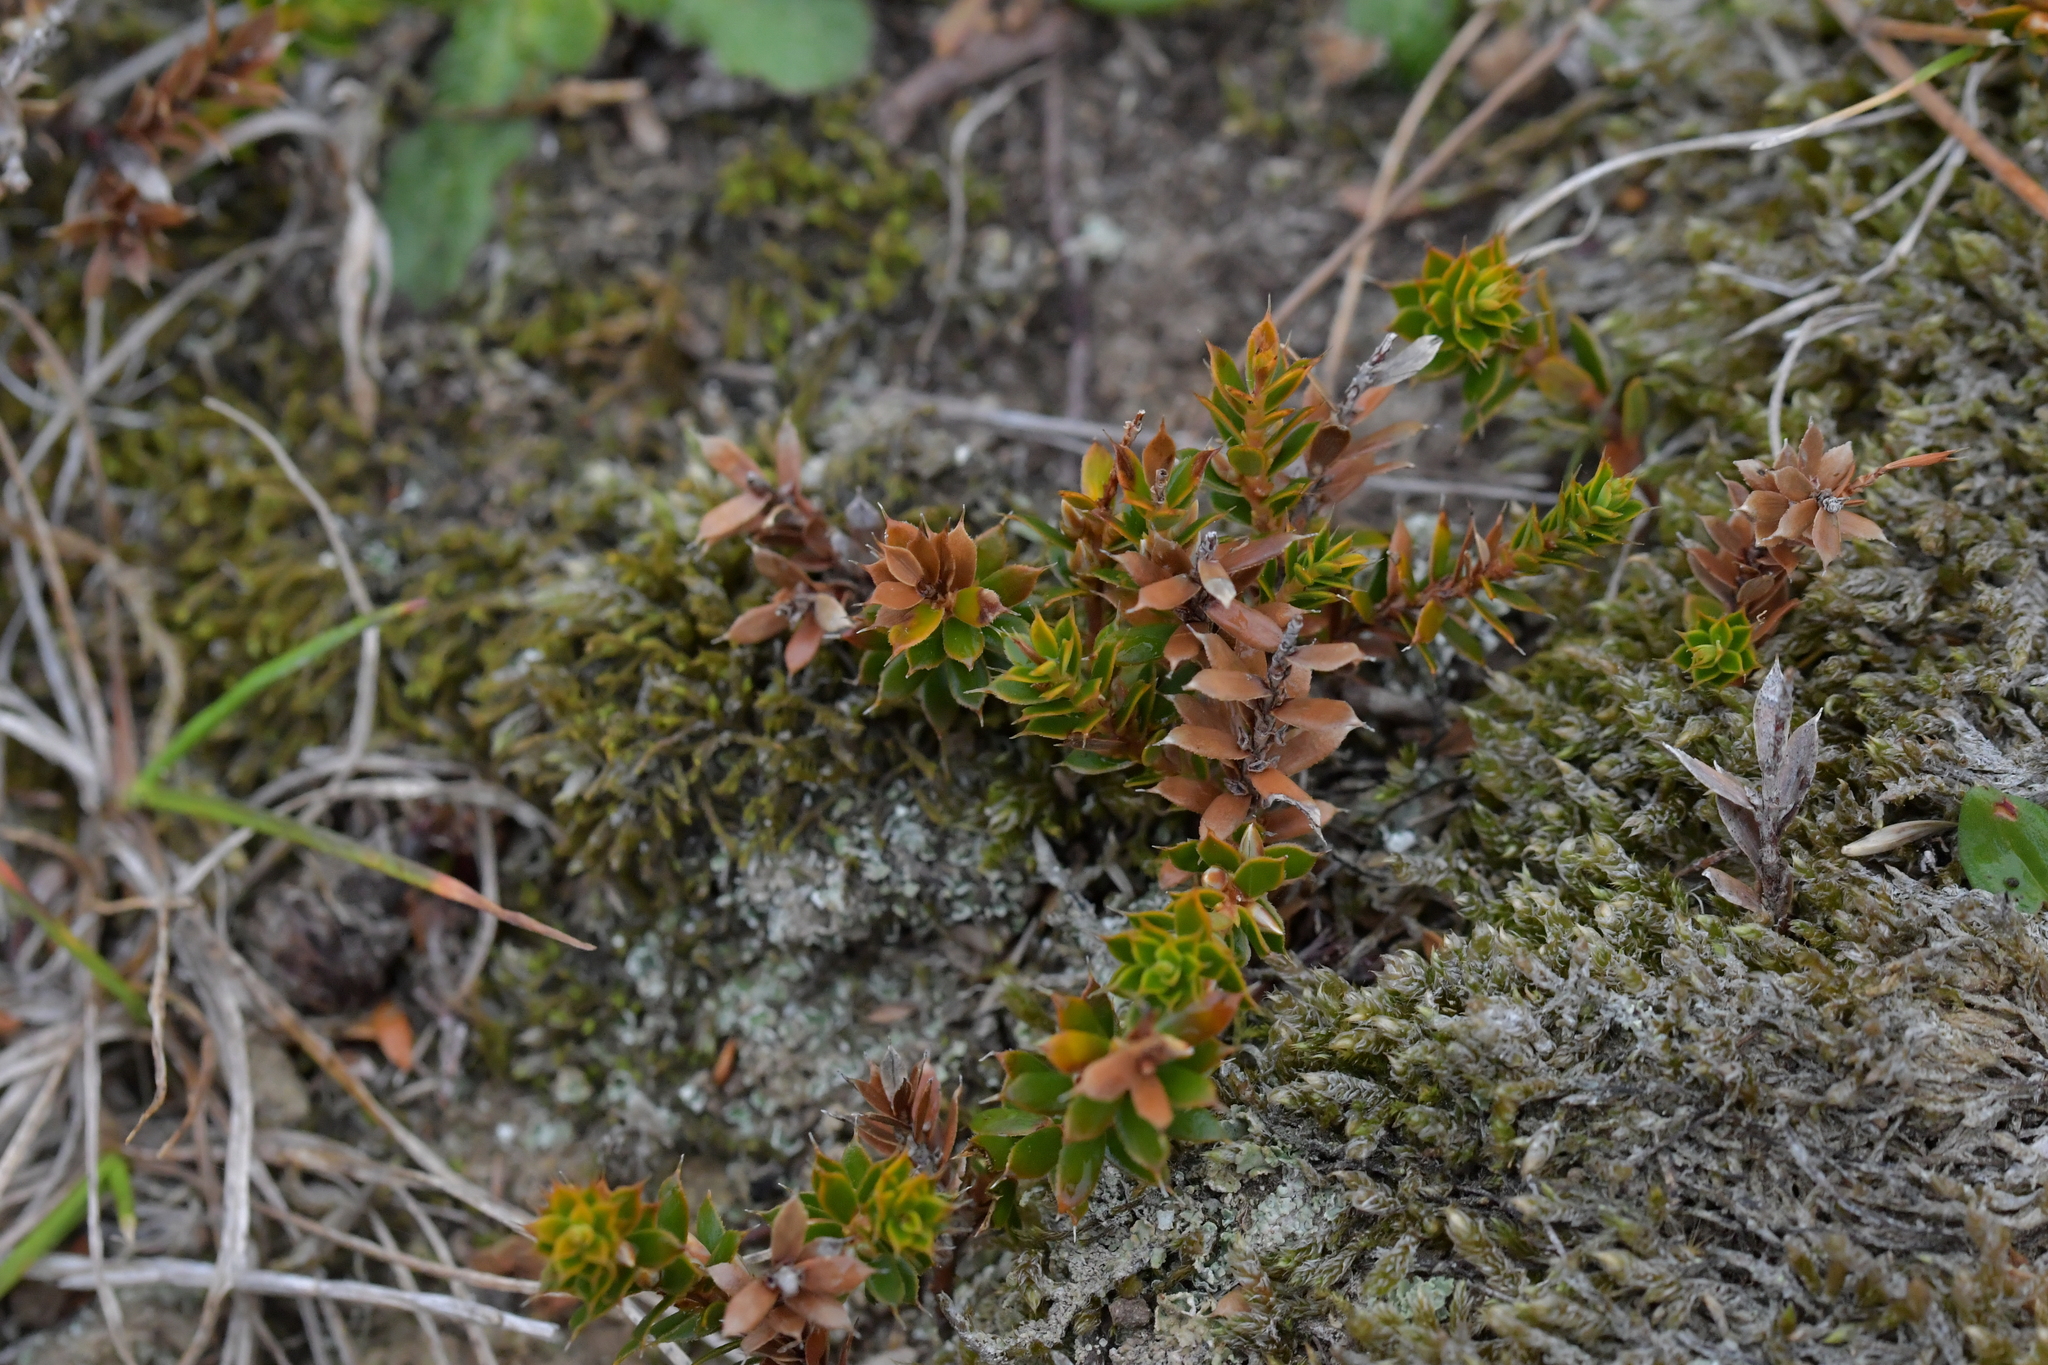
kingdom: Plantae
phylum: Tracheophyta
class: Magnoliopsida
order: Ericales
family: Ericaceae
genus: Styphelia
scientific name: Styphelia nesophila
